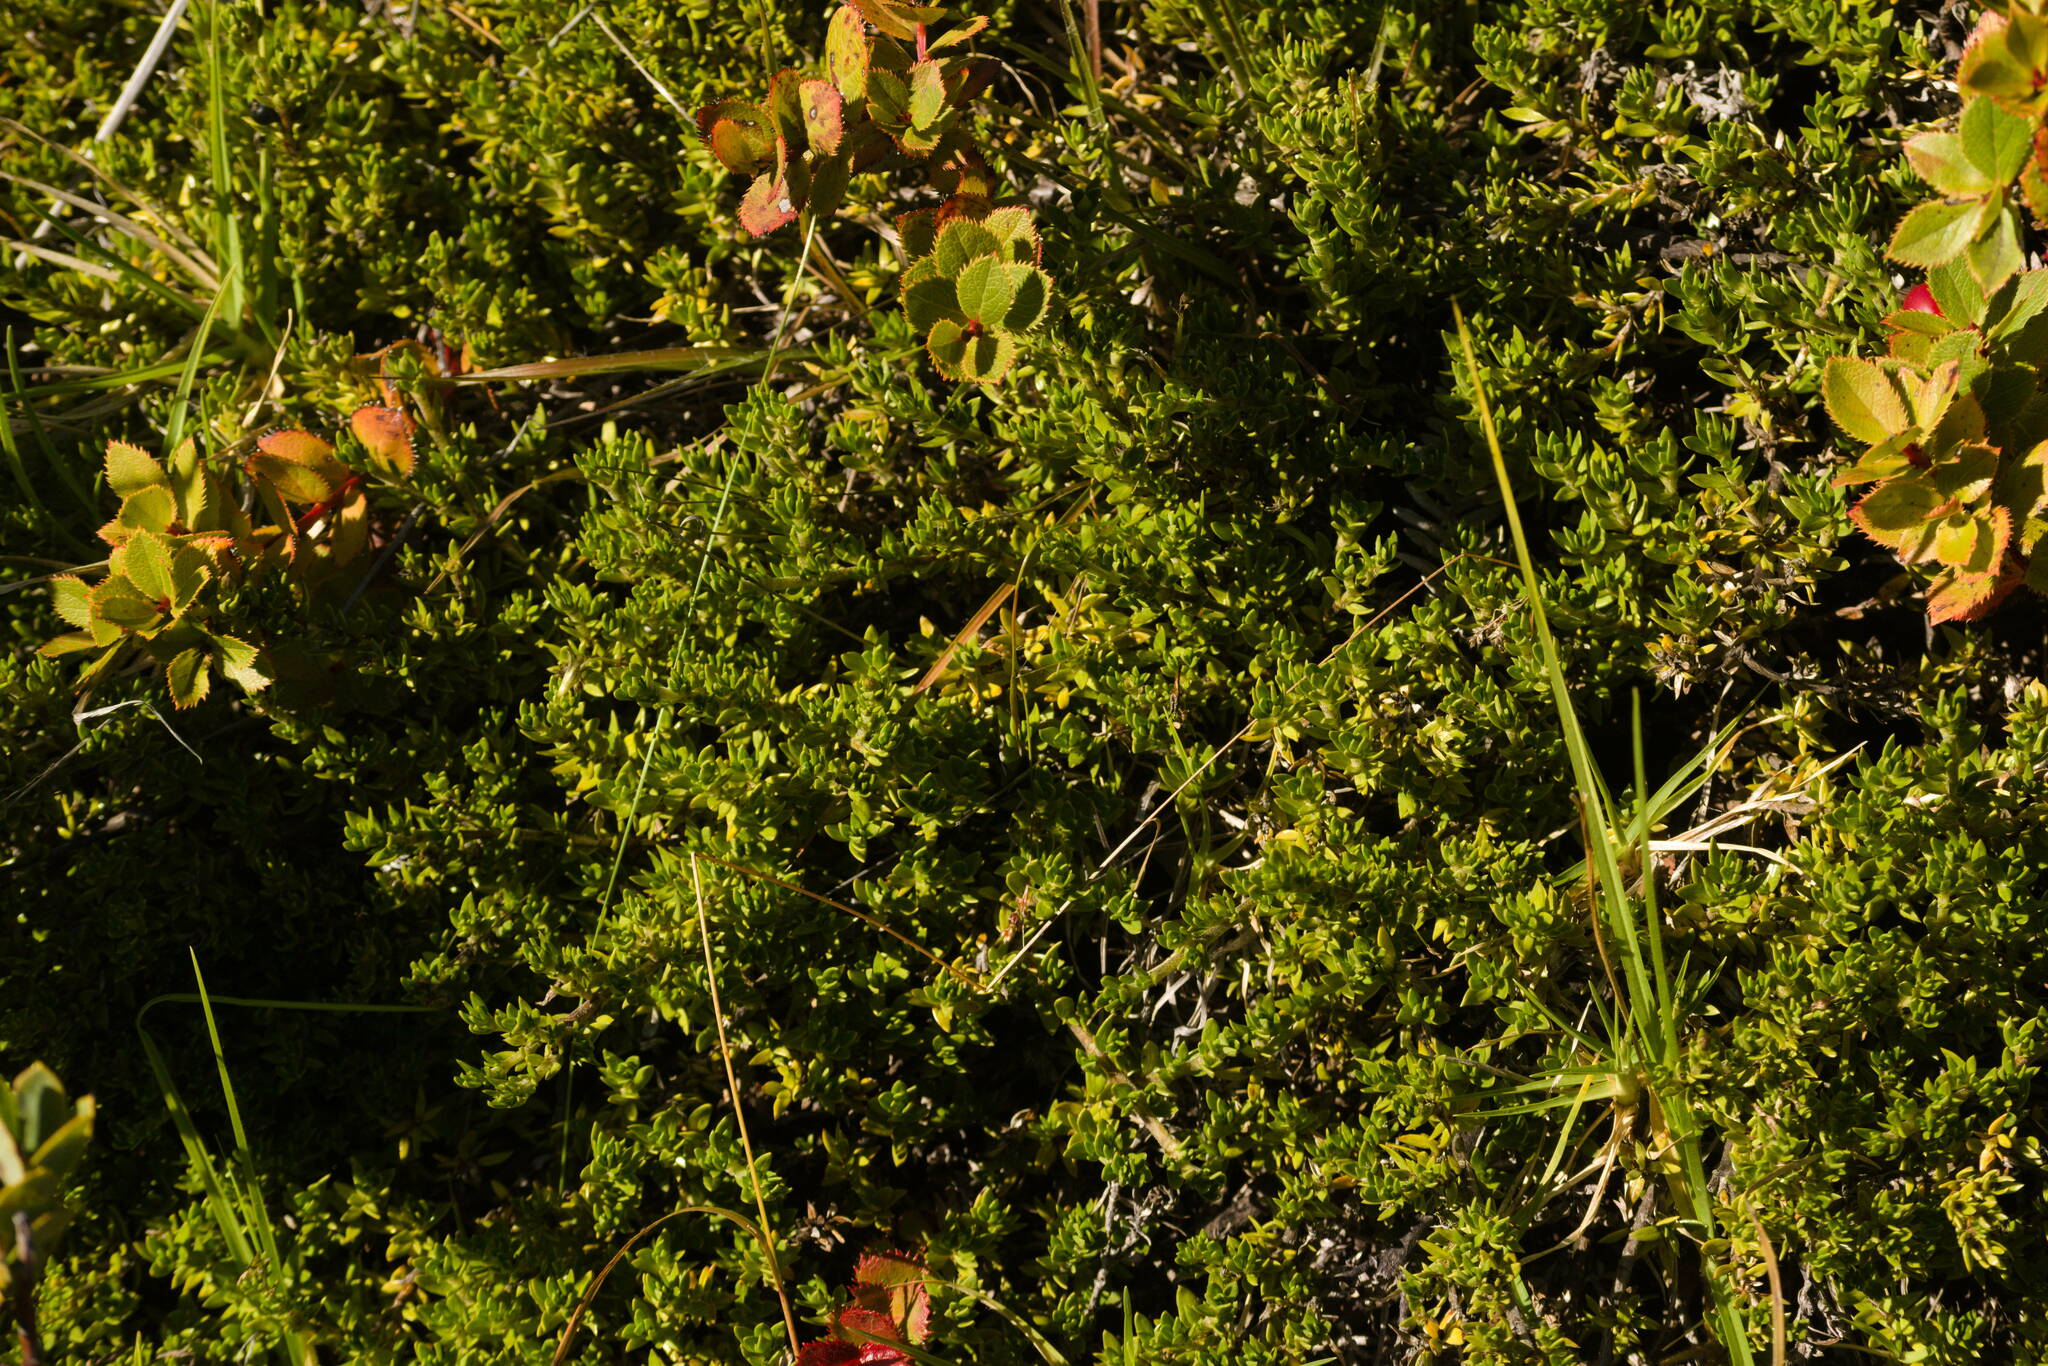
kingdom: Plantae
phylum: Tracheophyta
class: Magnoliopsida
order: Gentianales
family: Rubiaceae
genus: Coprosma
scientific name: Coprosma ernodeoides
